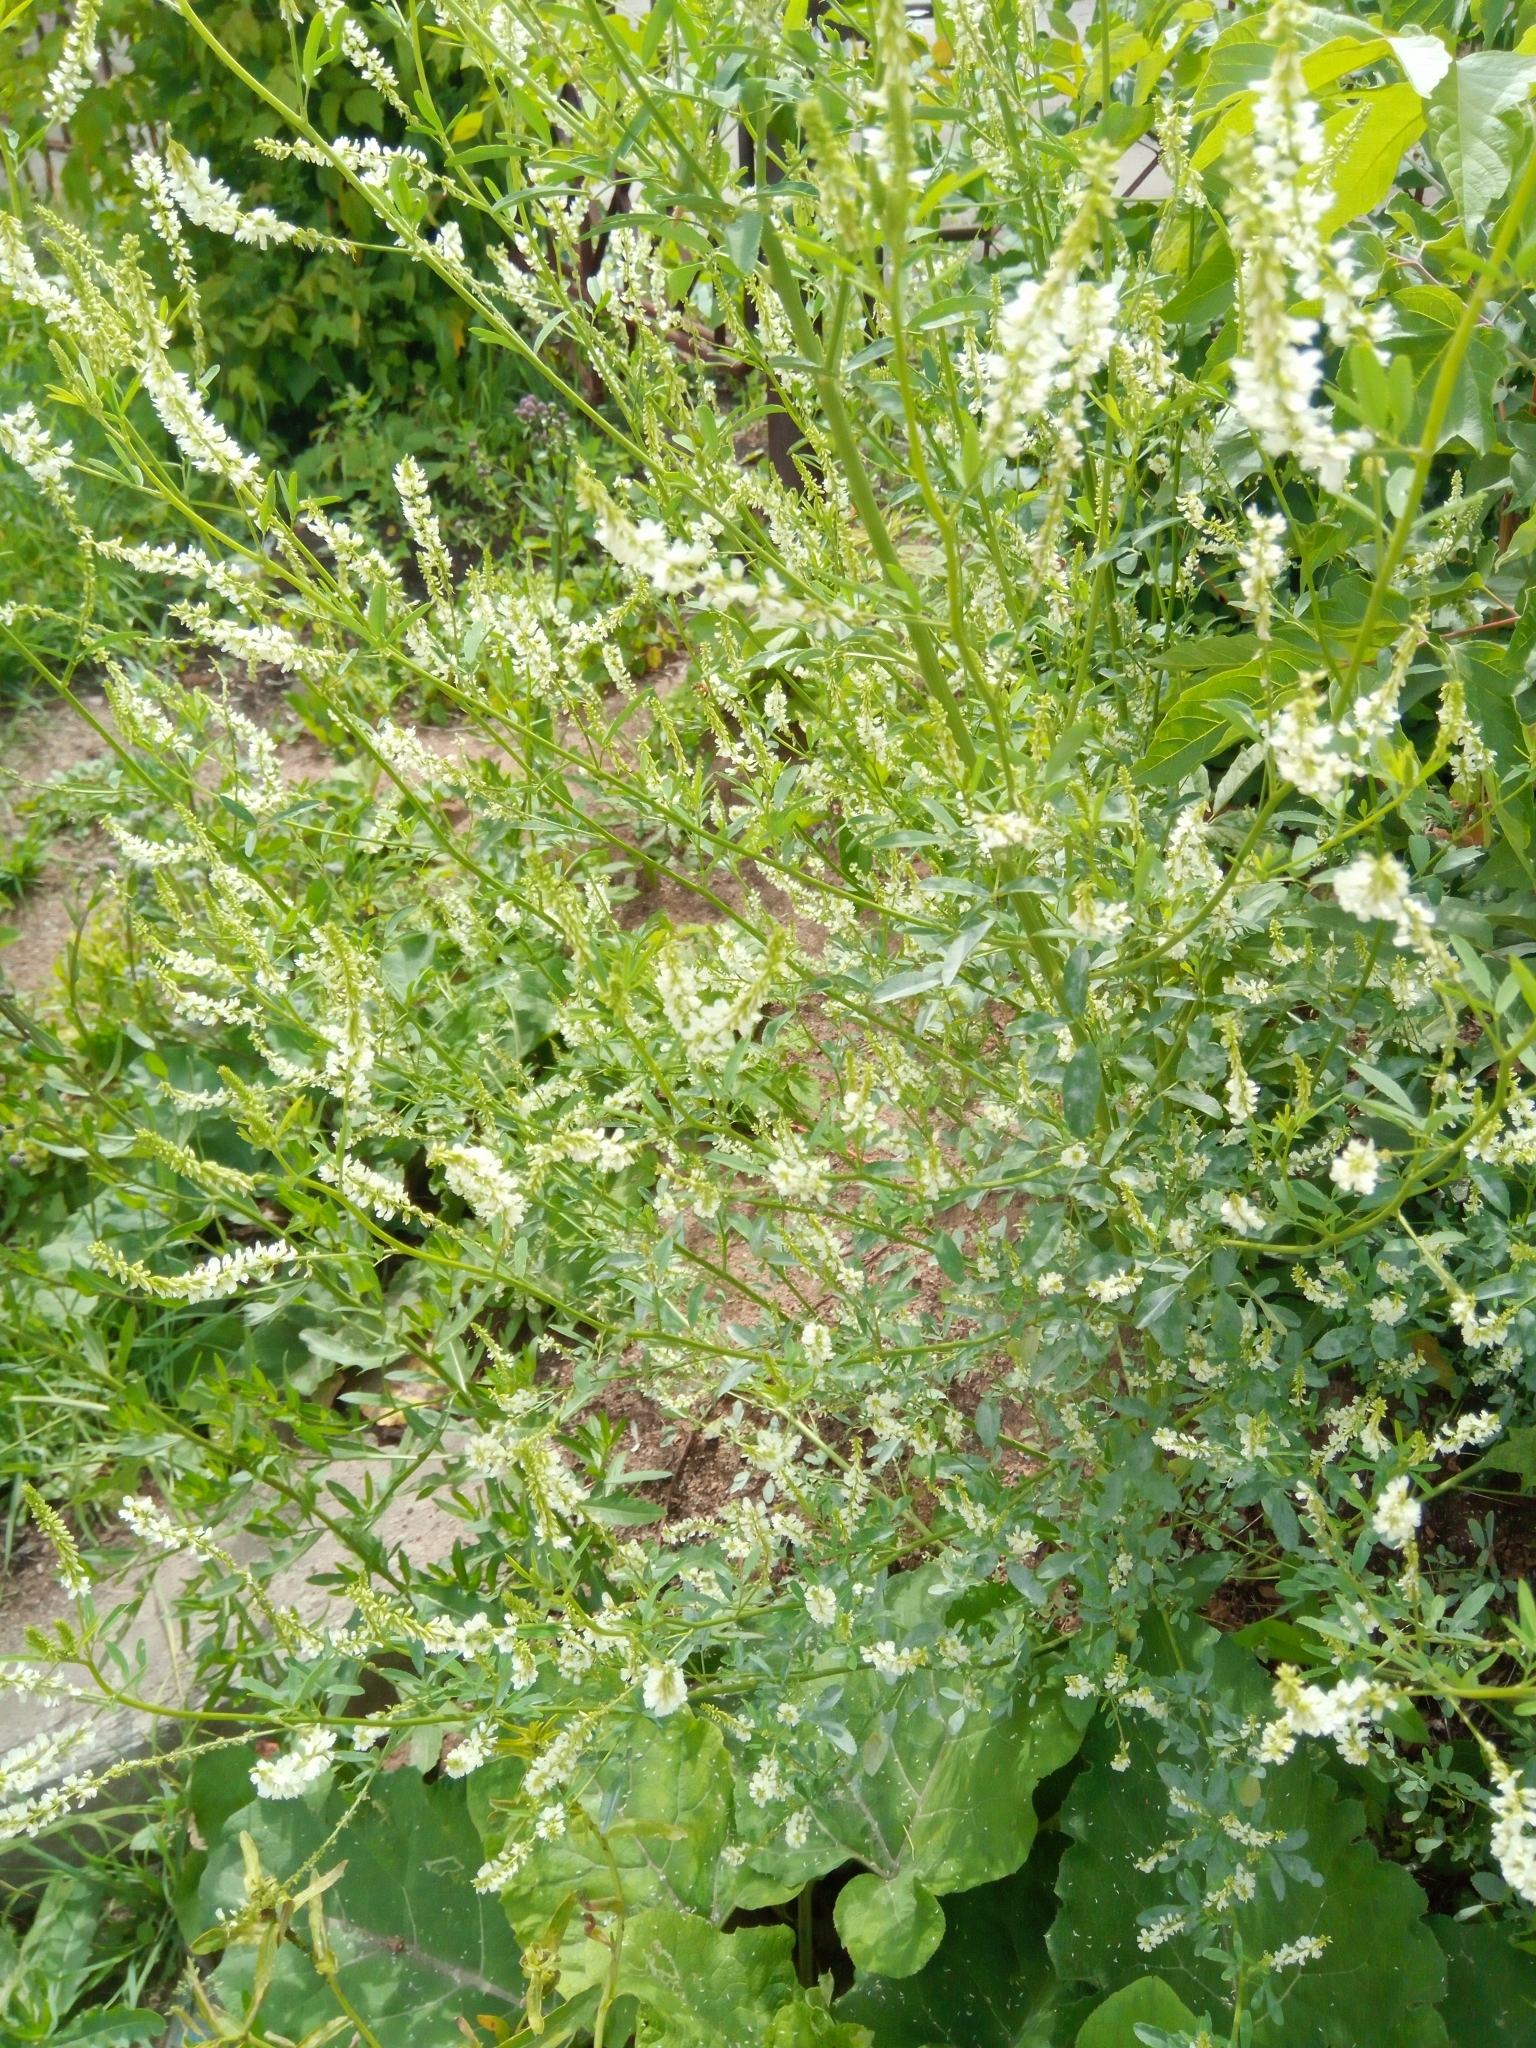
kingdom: Plantae
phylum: Tracheophyta
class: Magnoliopsida
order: Fabales
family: Fabaceae
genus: Melilotus
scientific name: Melilotus albus
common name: White melilot
